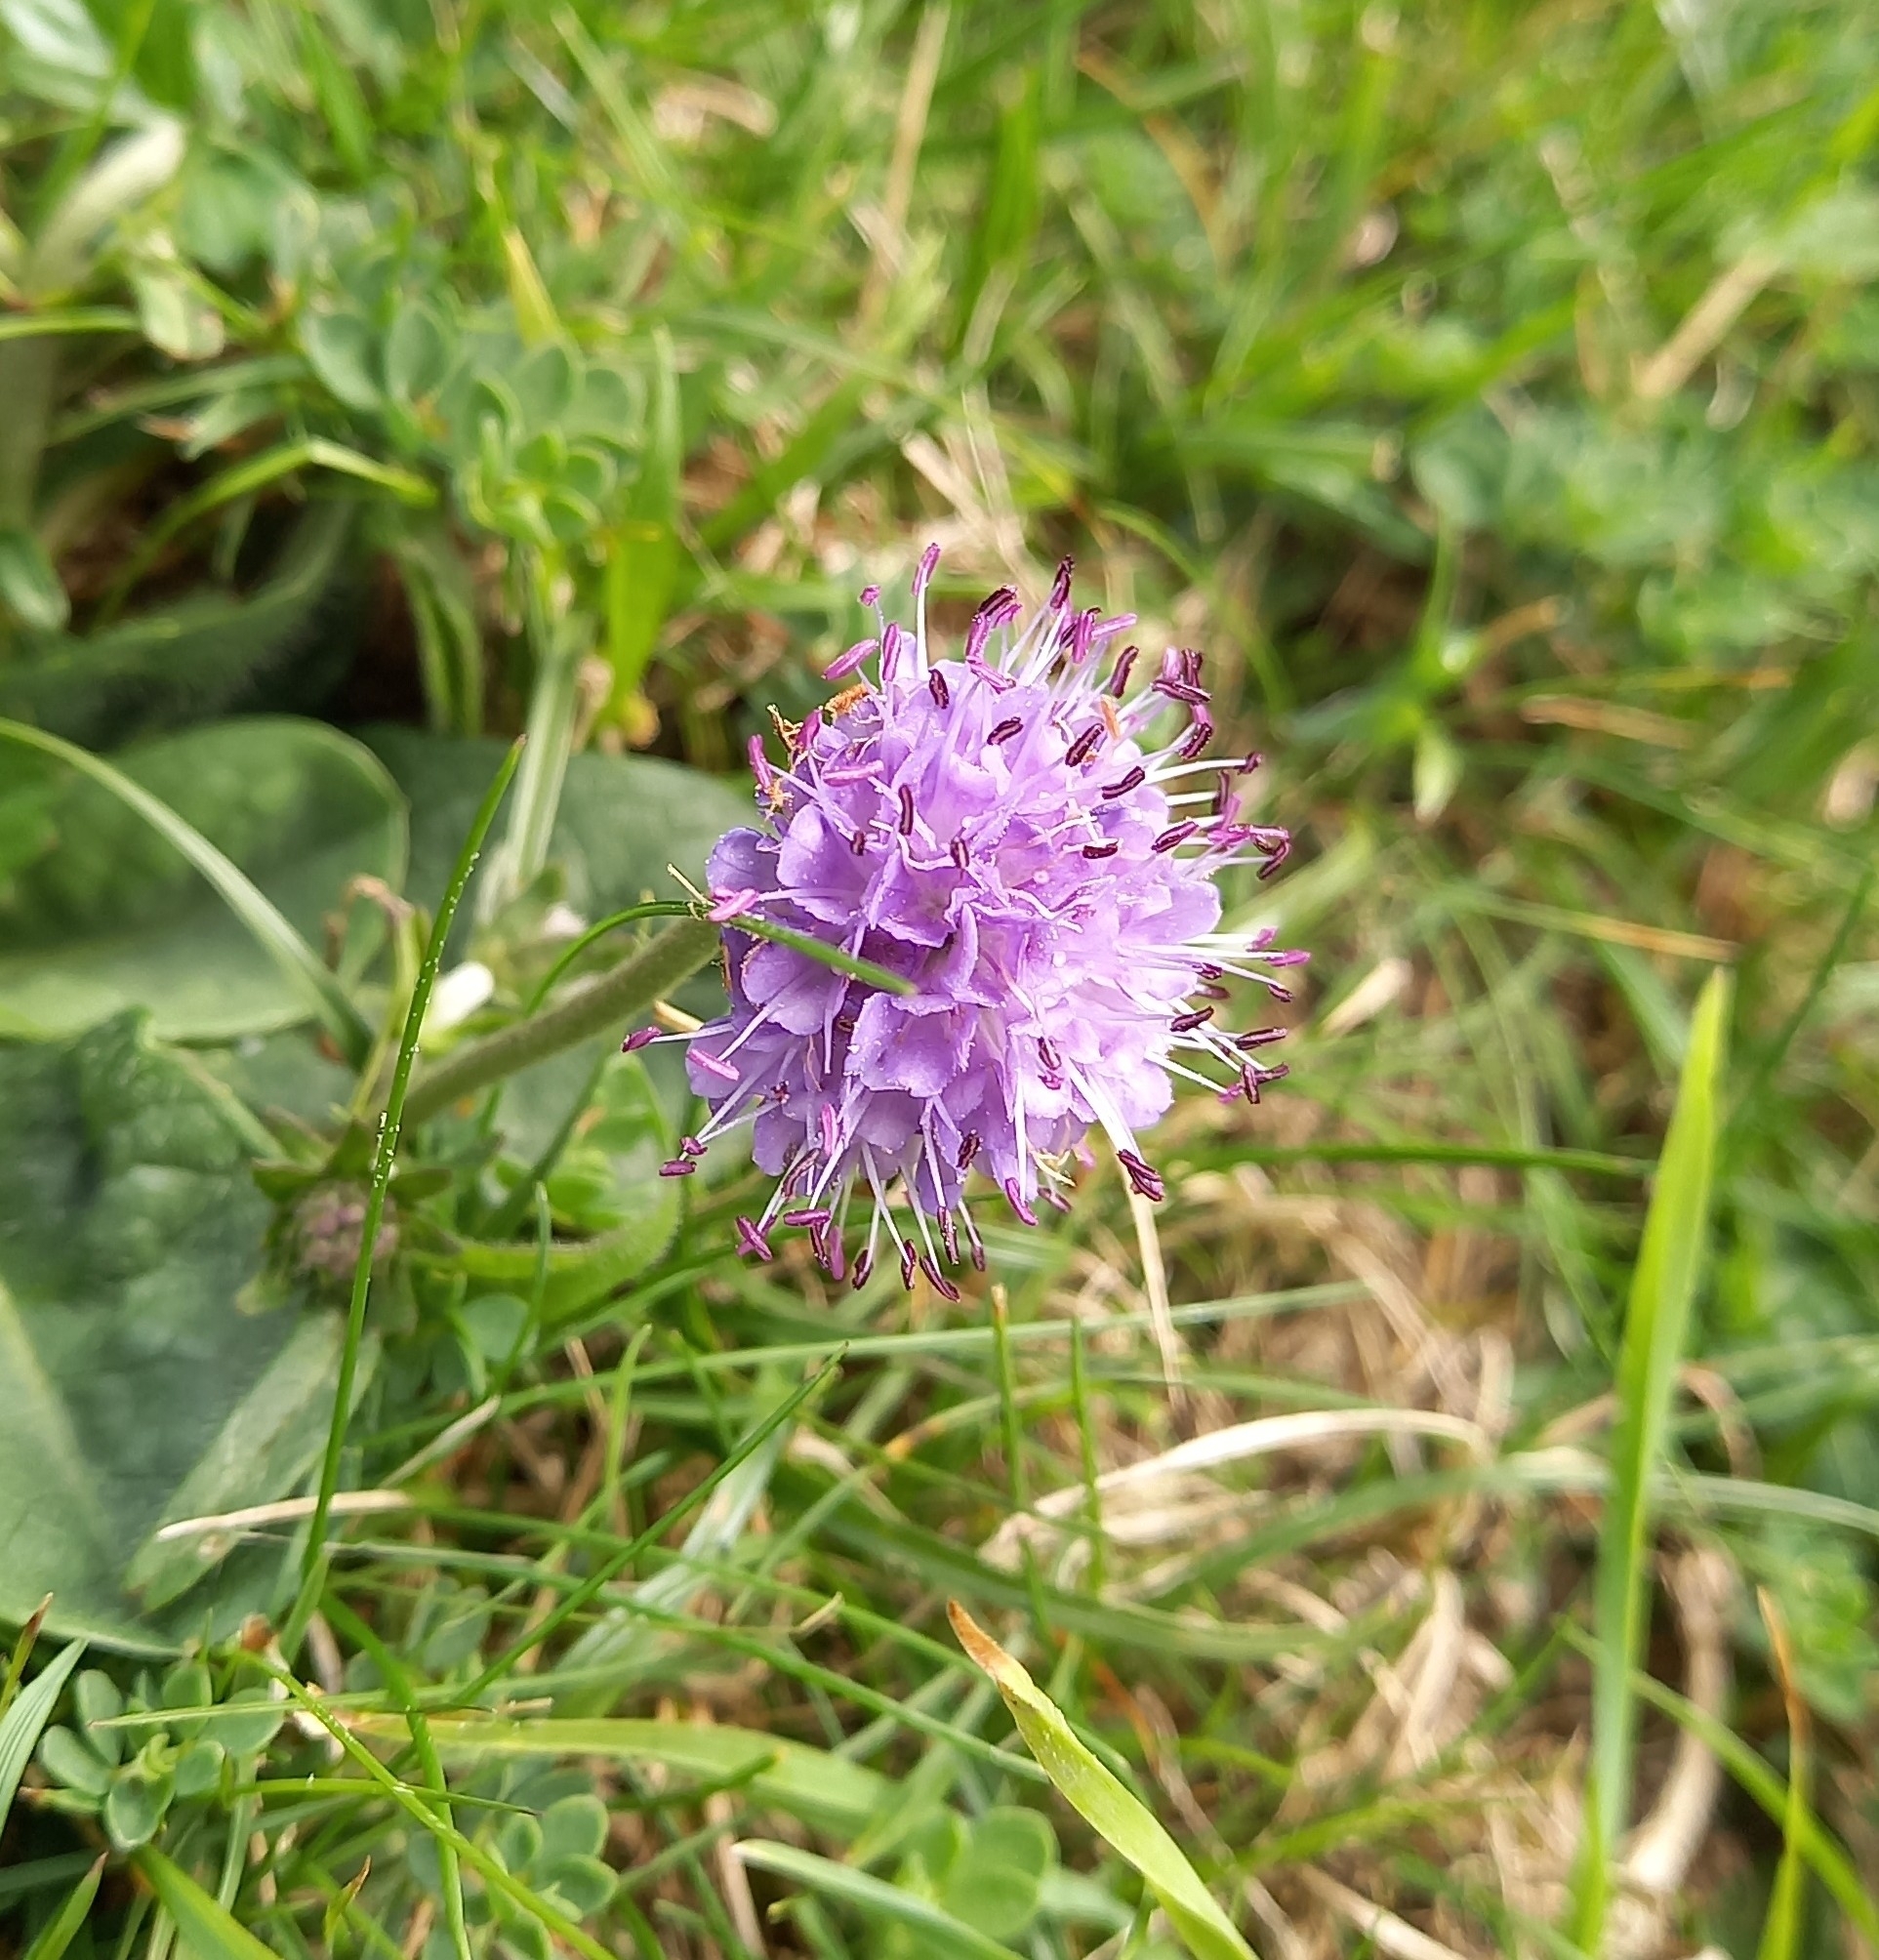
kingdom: Plantae
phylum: Tracheophyta
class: Magnoliopsida
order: Dipsacales
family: Caprifoliaceae
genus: Succisa
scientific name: Succisa pratensis
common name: Devil's-bit
